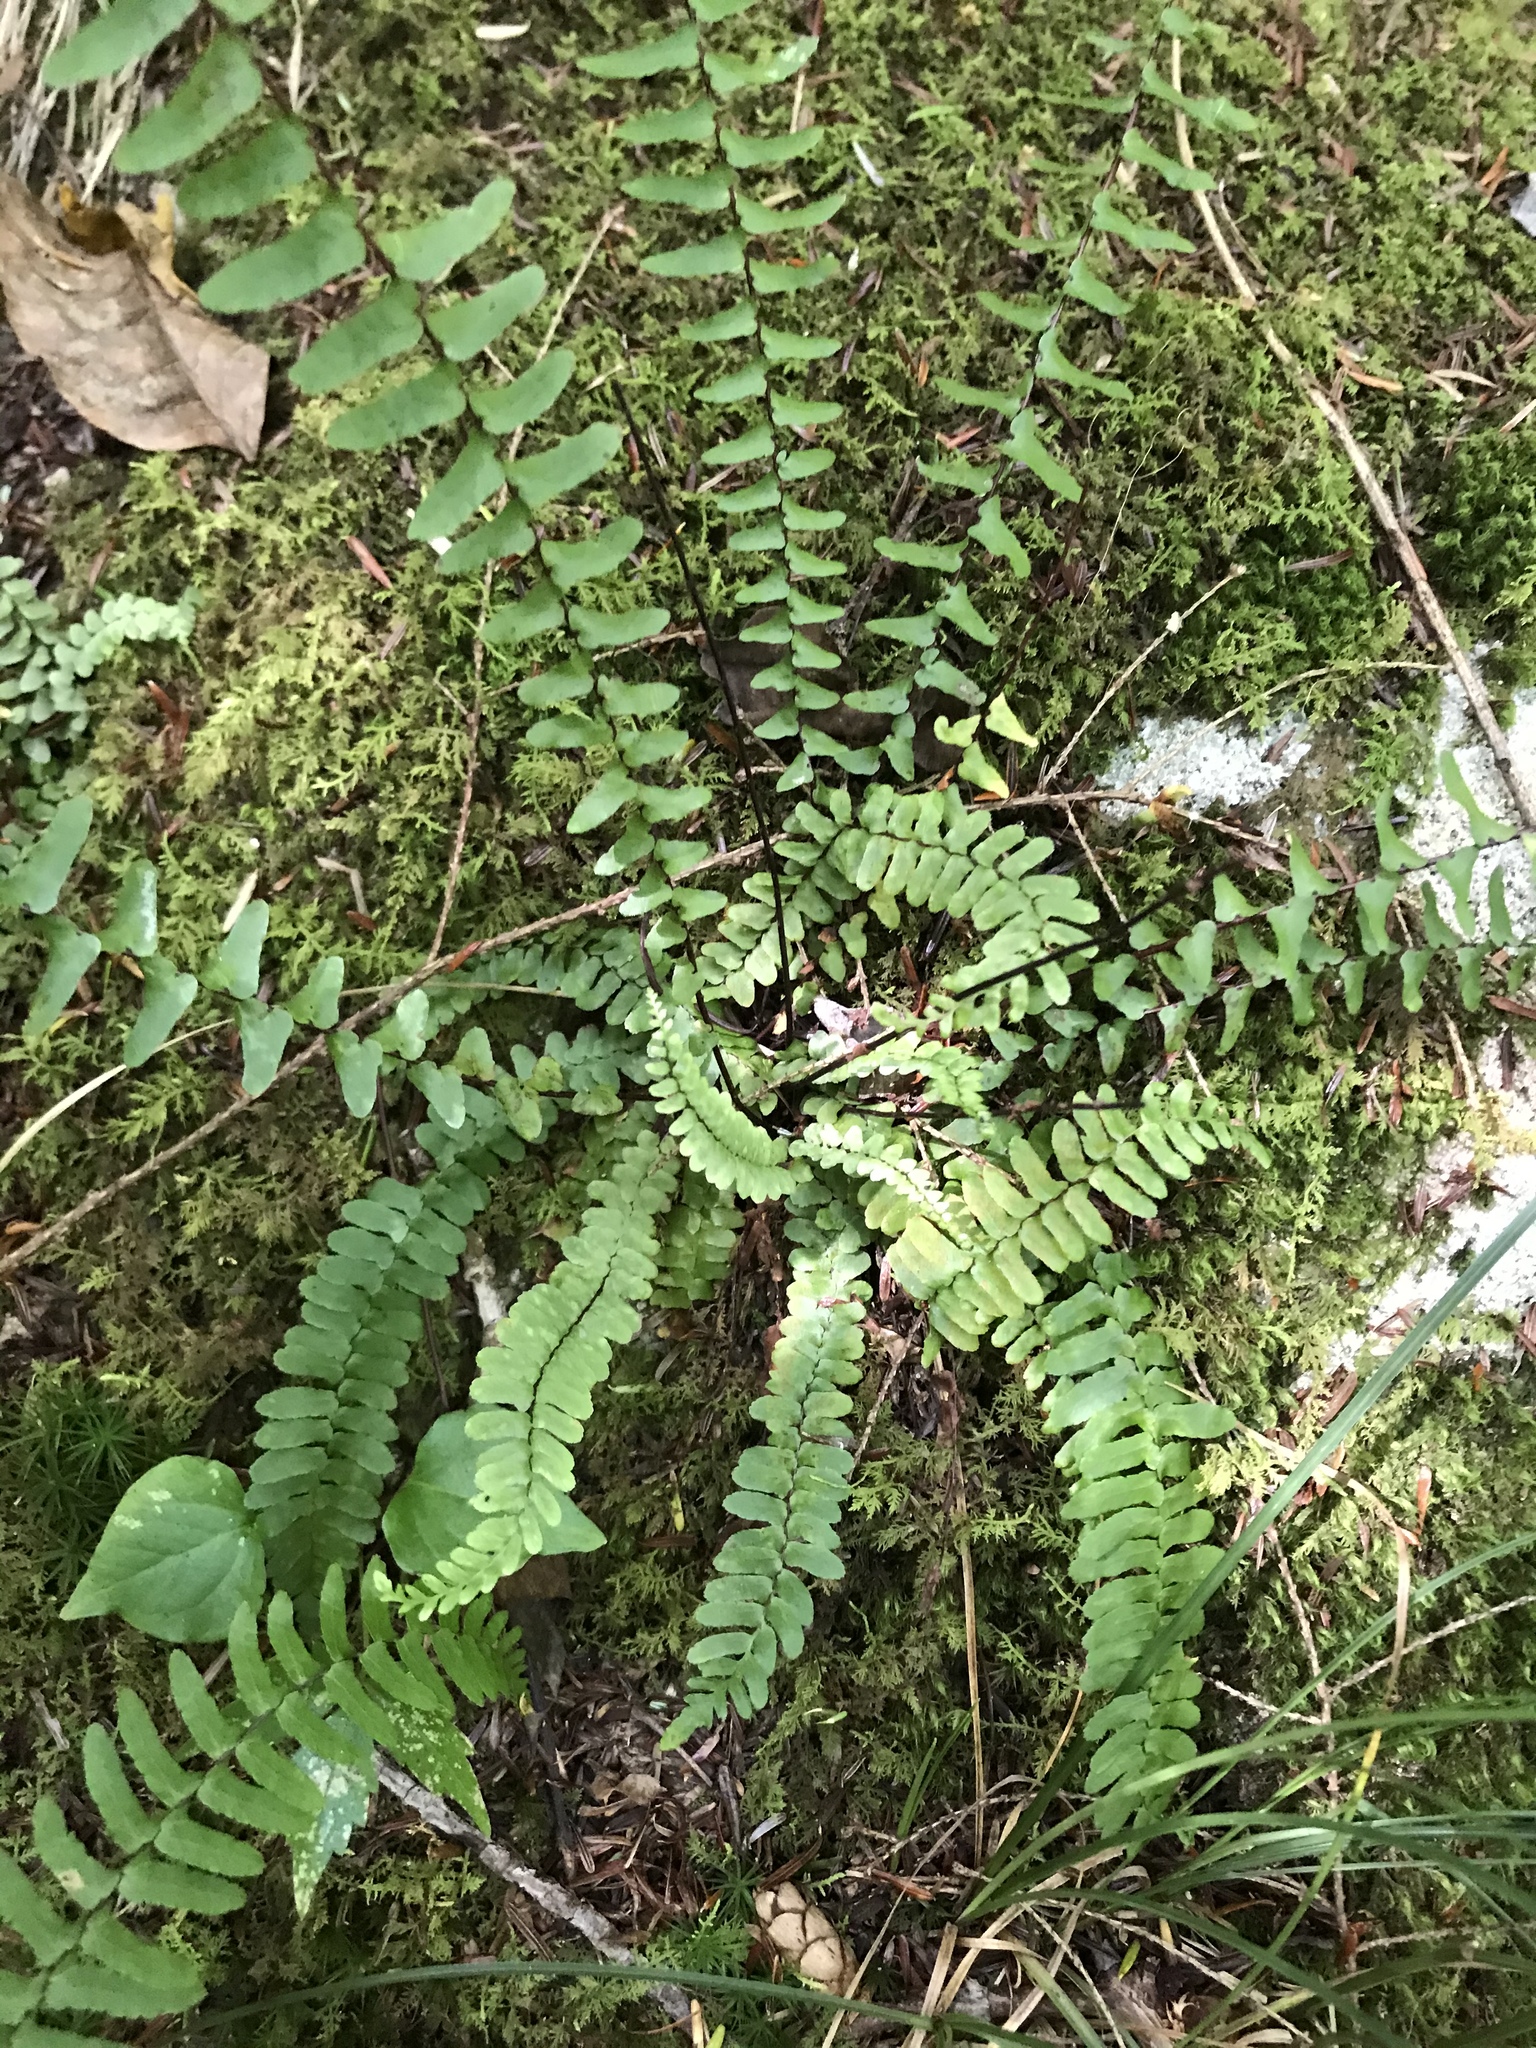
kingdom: Plantae
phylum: Tracheophyta
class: Polypodiopsida
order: Polypodiales
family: Aspleniaceae
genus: Asplenium
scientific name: Asplenium platyneuron
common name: Ebony spleenwort
